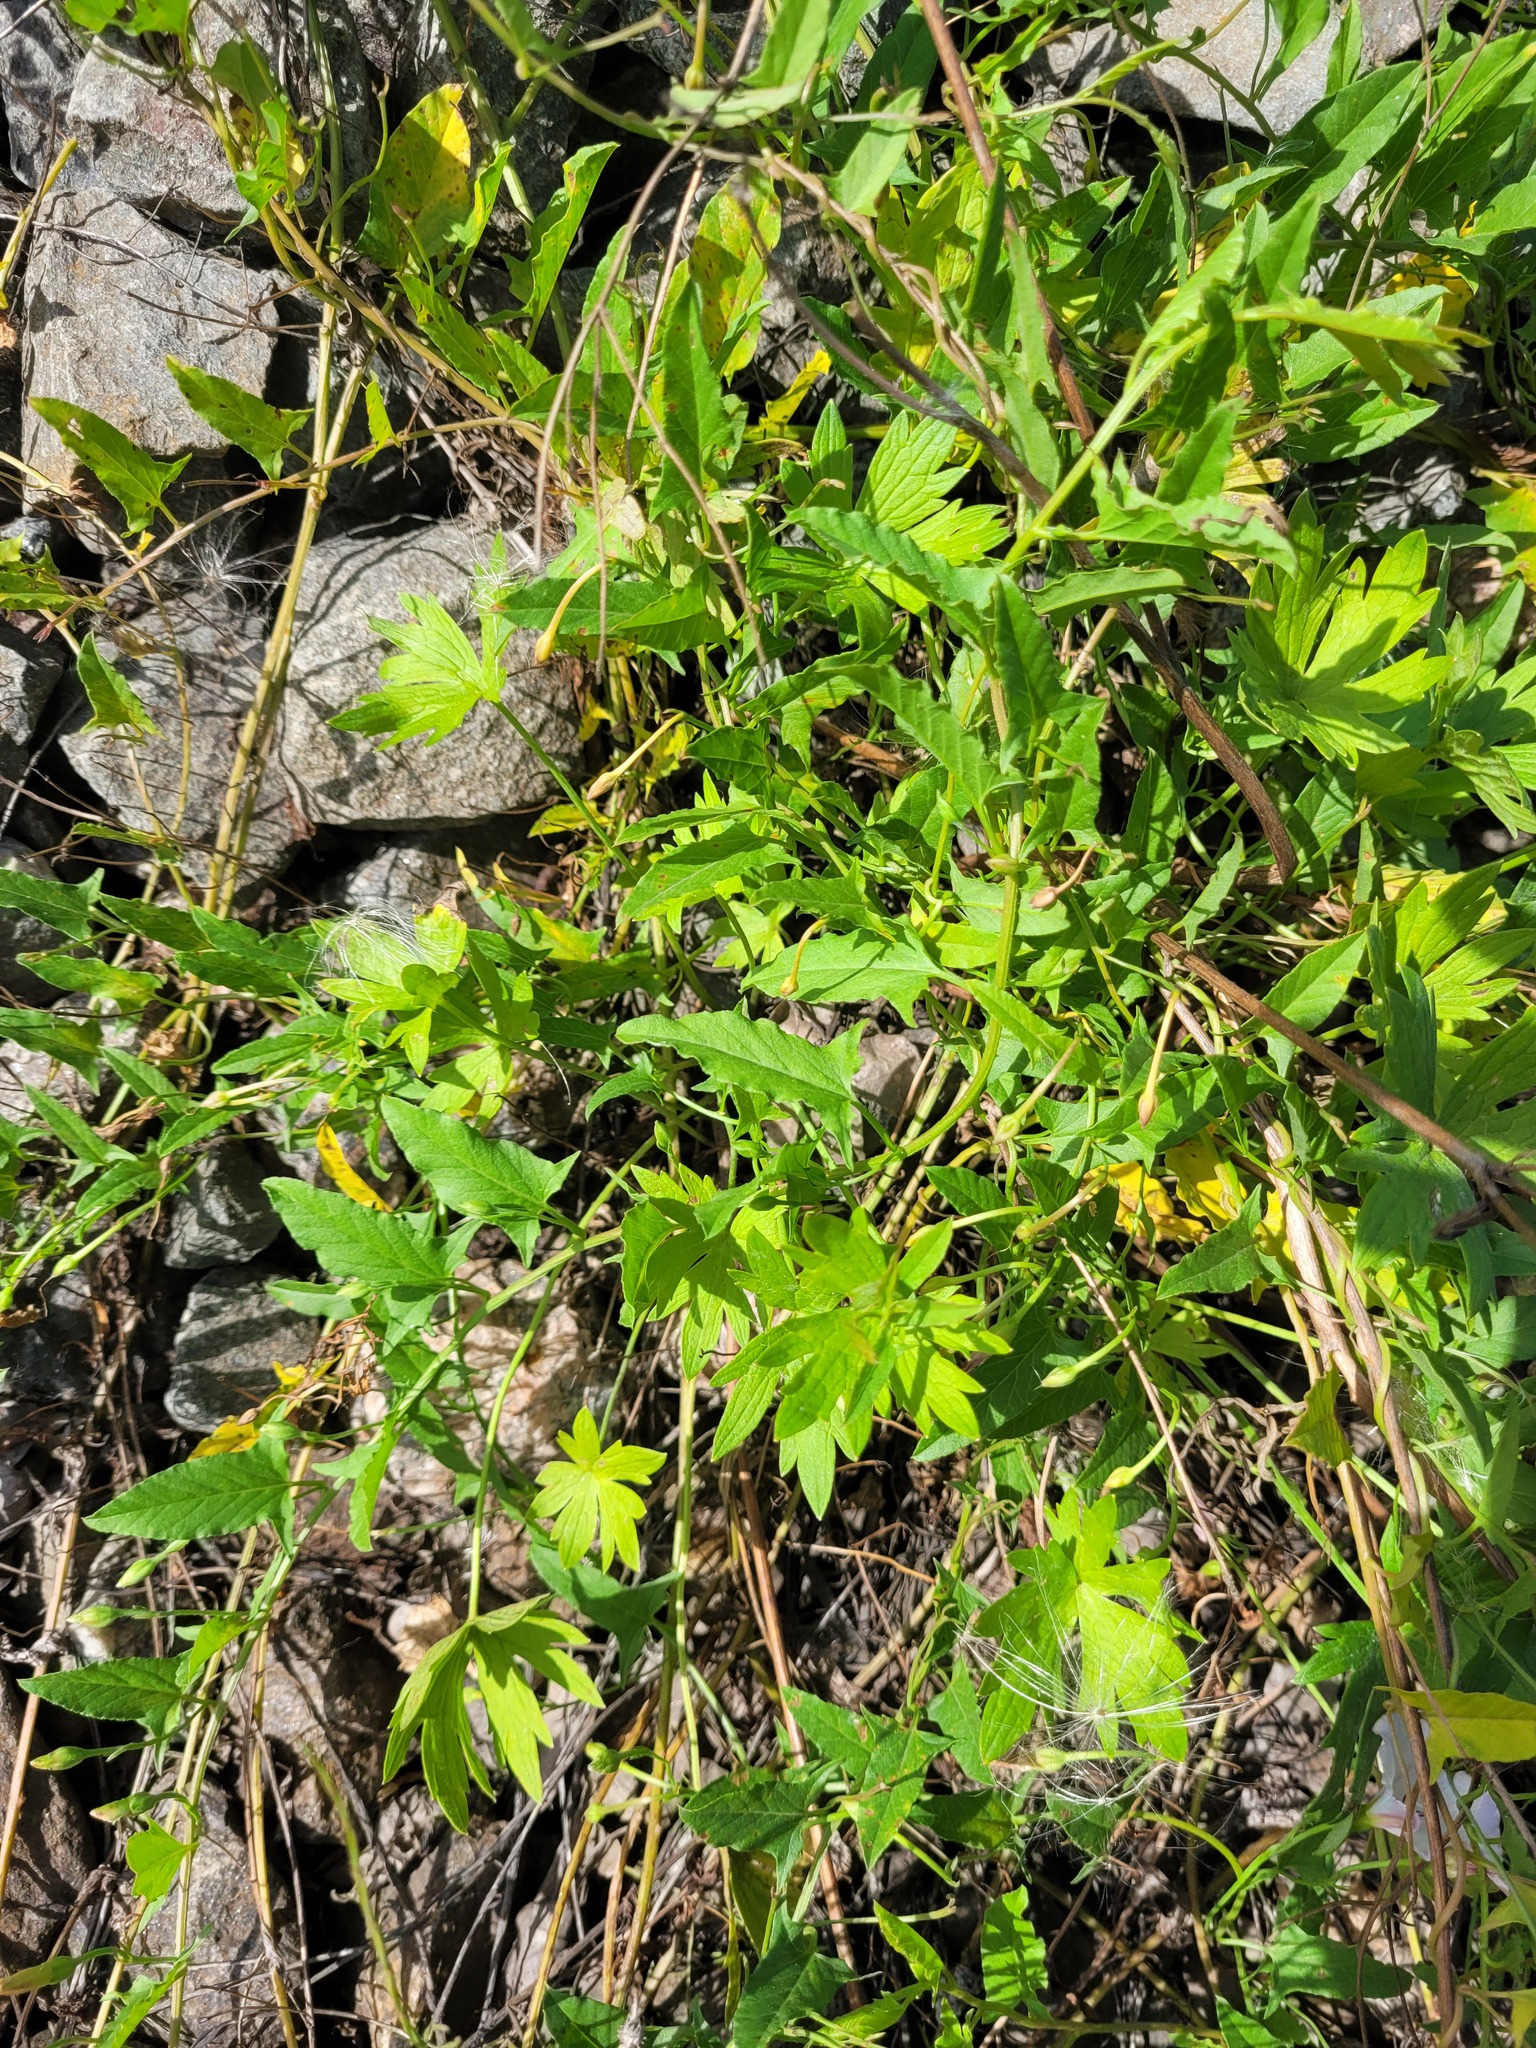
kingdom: Plantae
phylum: Tracheophyta
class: Magnoliopsida
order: Ranunculales
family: Ranunculaceae
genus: Ranunculus
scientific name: Ranunculus acris
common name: Meadow buttercup
